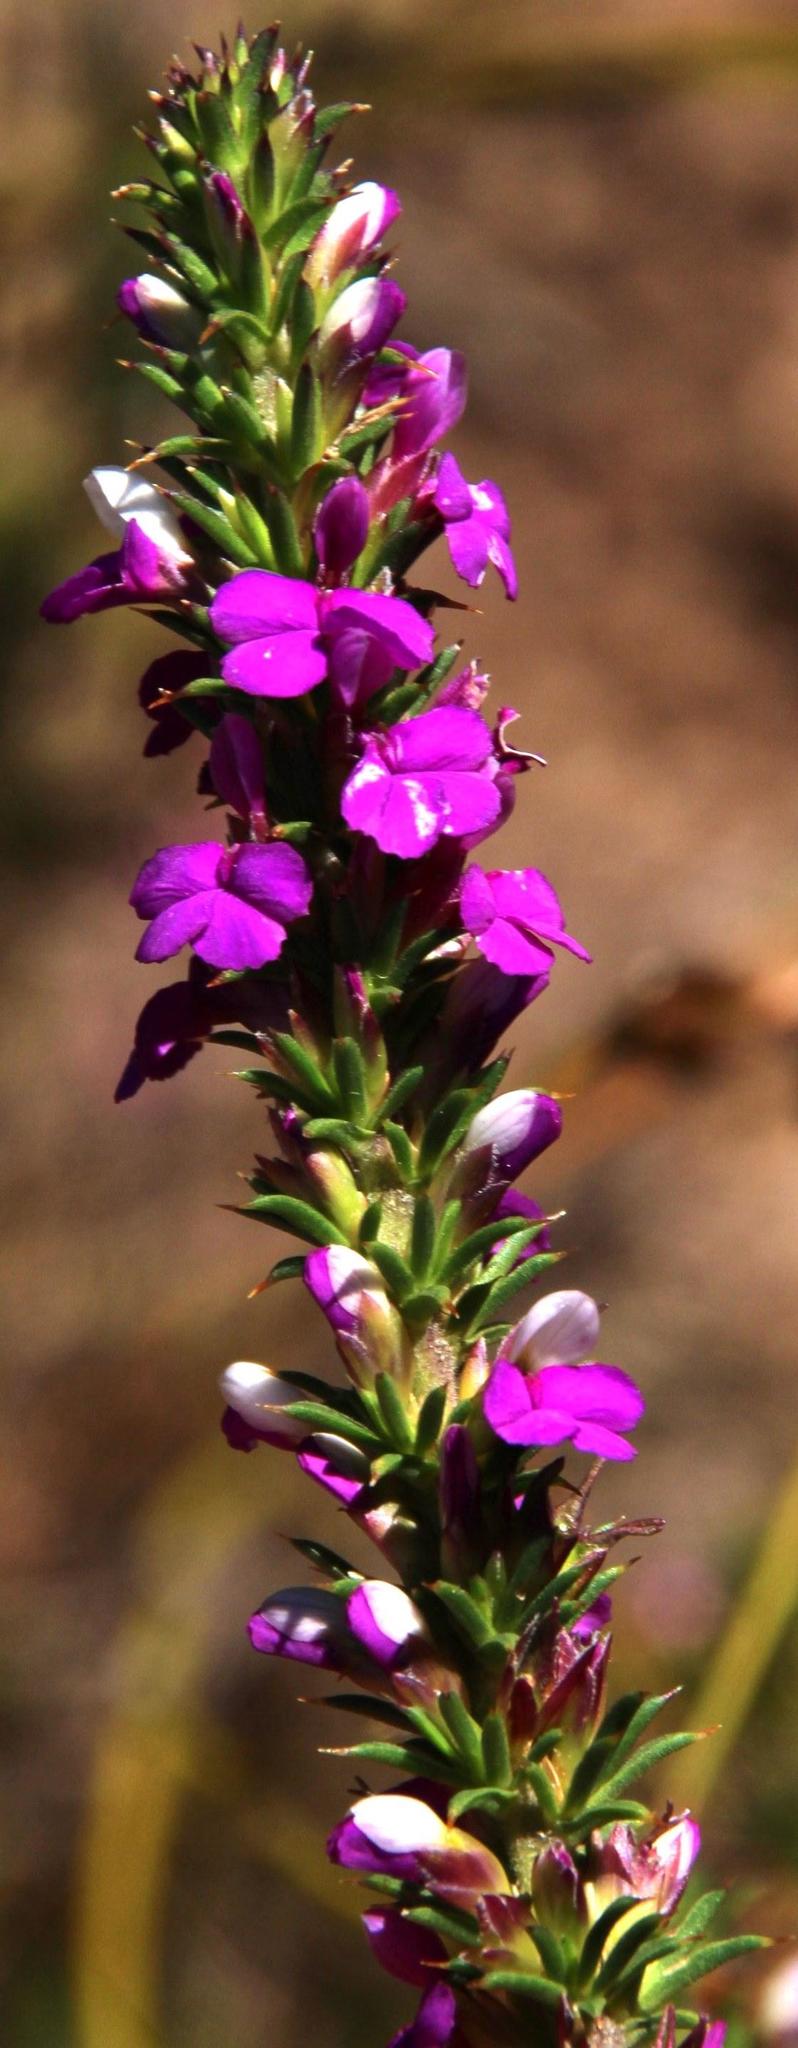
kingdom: Plantae
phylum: Tracheophyta
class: Magnoliopsida
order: Fabales
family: Polygalaceae
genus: Muraltia
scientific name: Muraltia heisteria
